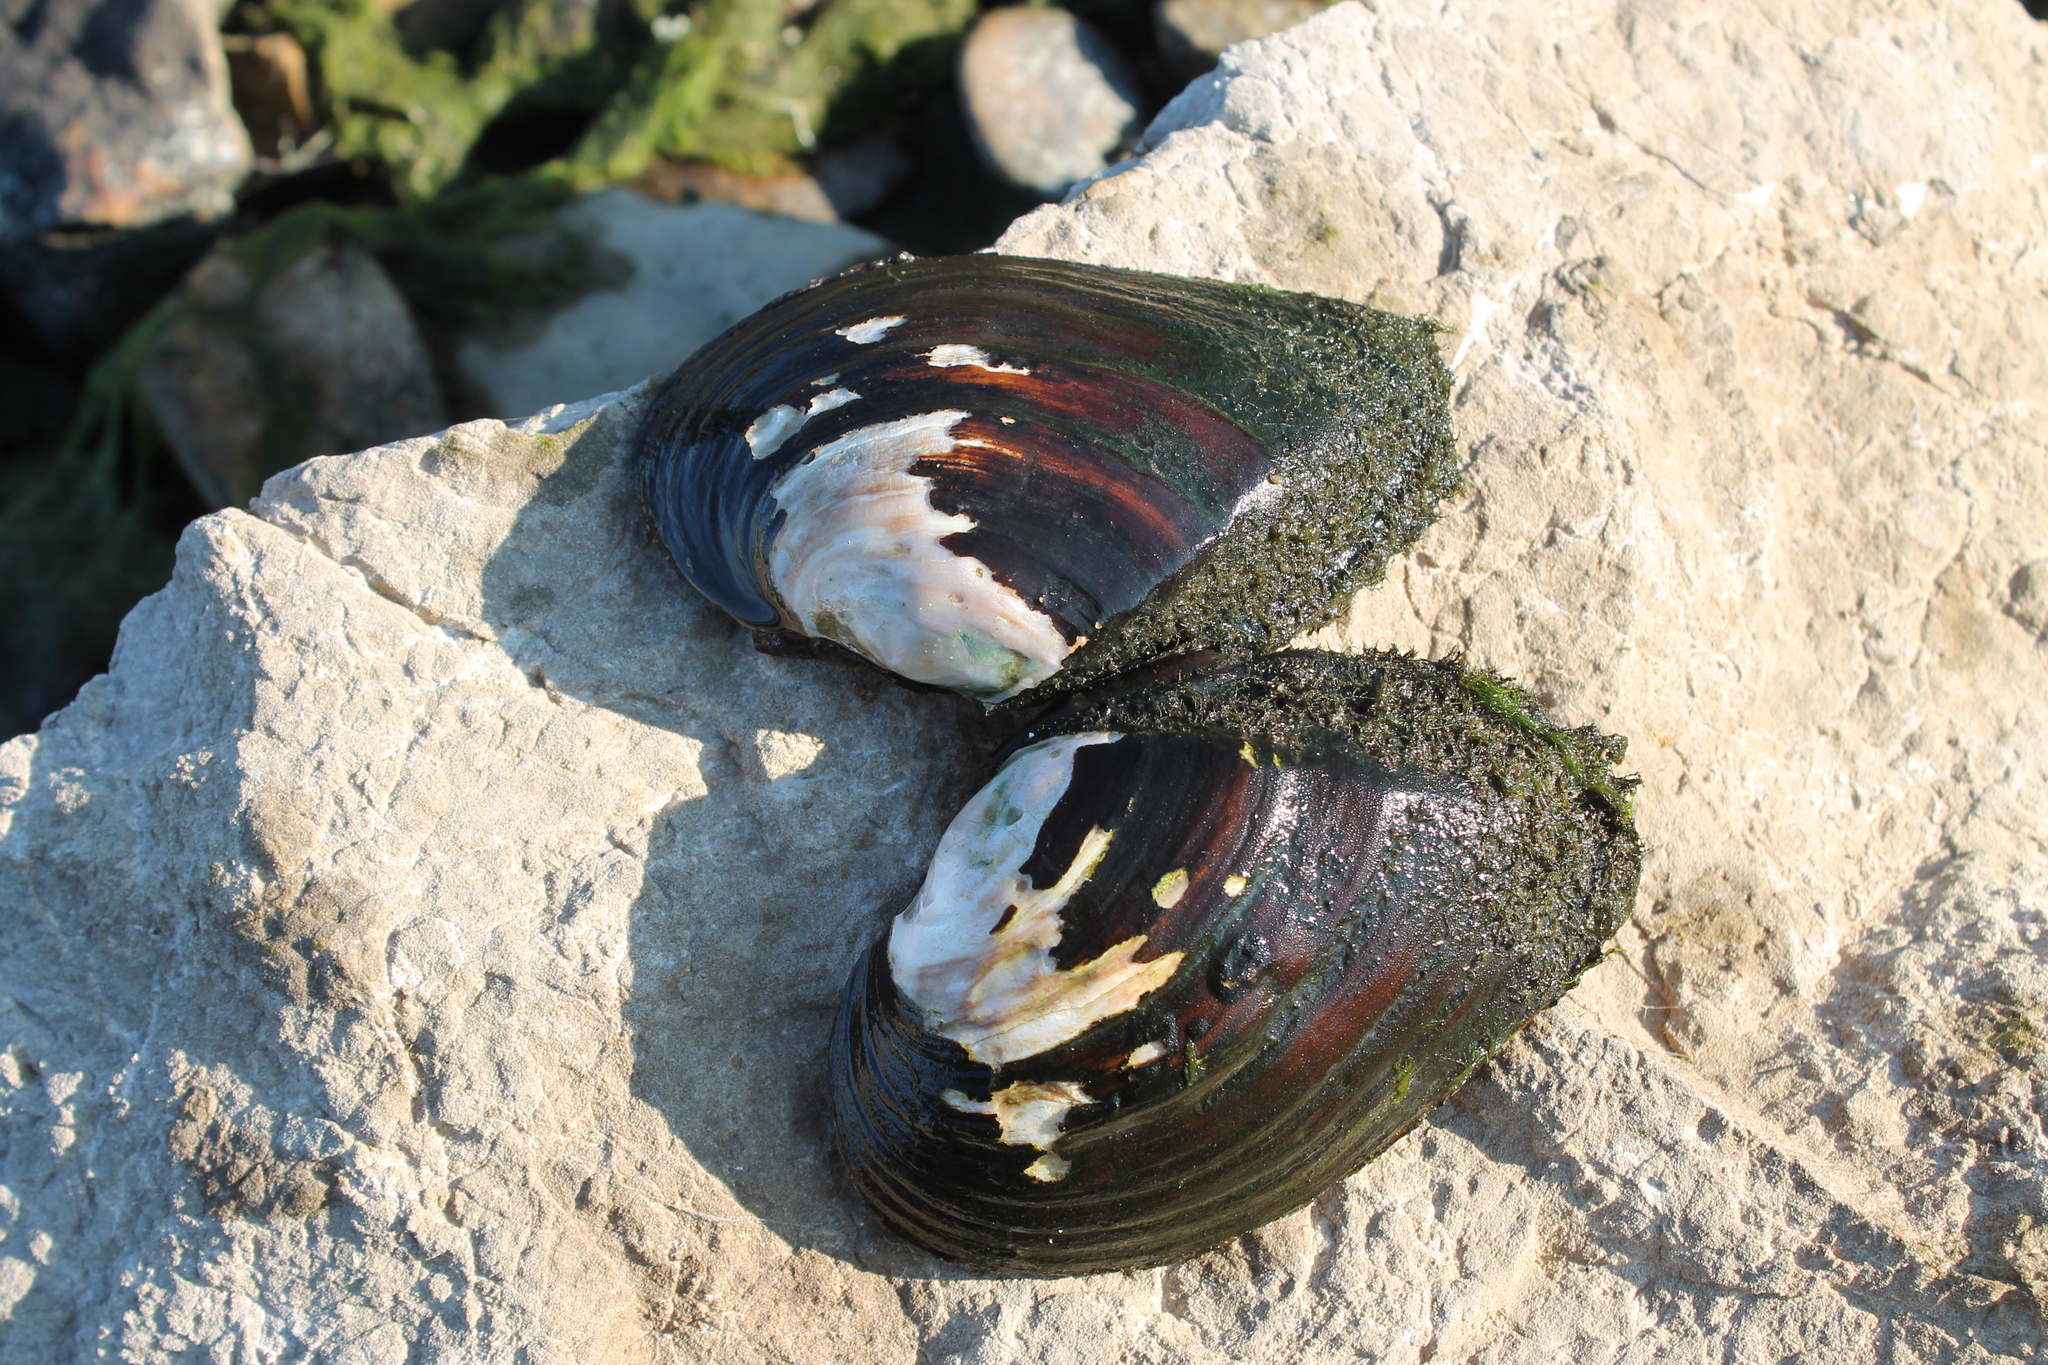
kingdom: Animalia
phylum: Mollusca
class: Bivalvia
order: Unionida
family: Unionidae
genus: Elliptio
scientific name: Elliptio crassidens
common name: Blue ham
